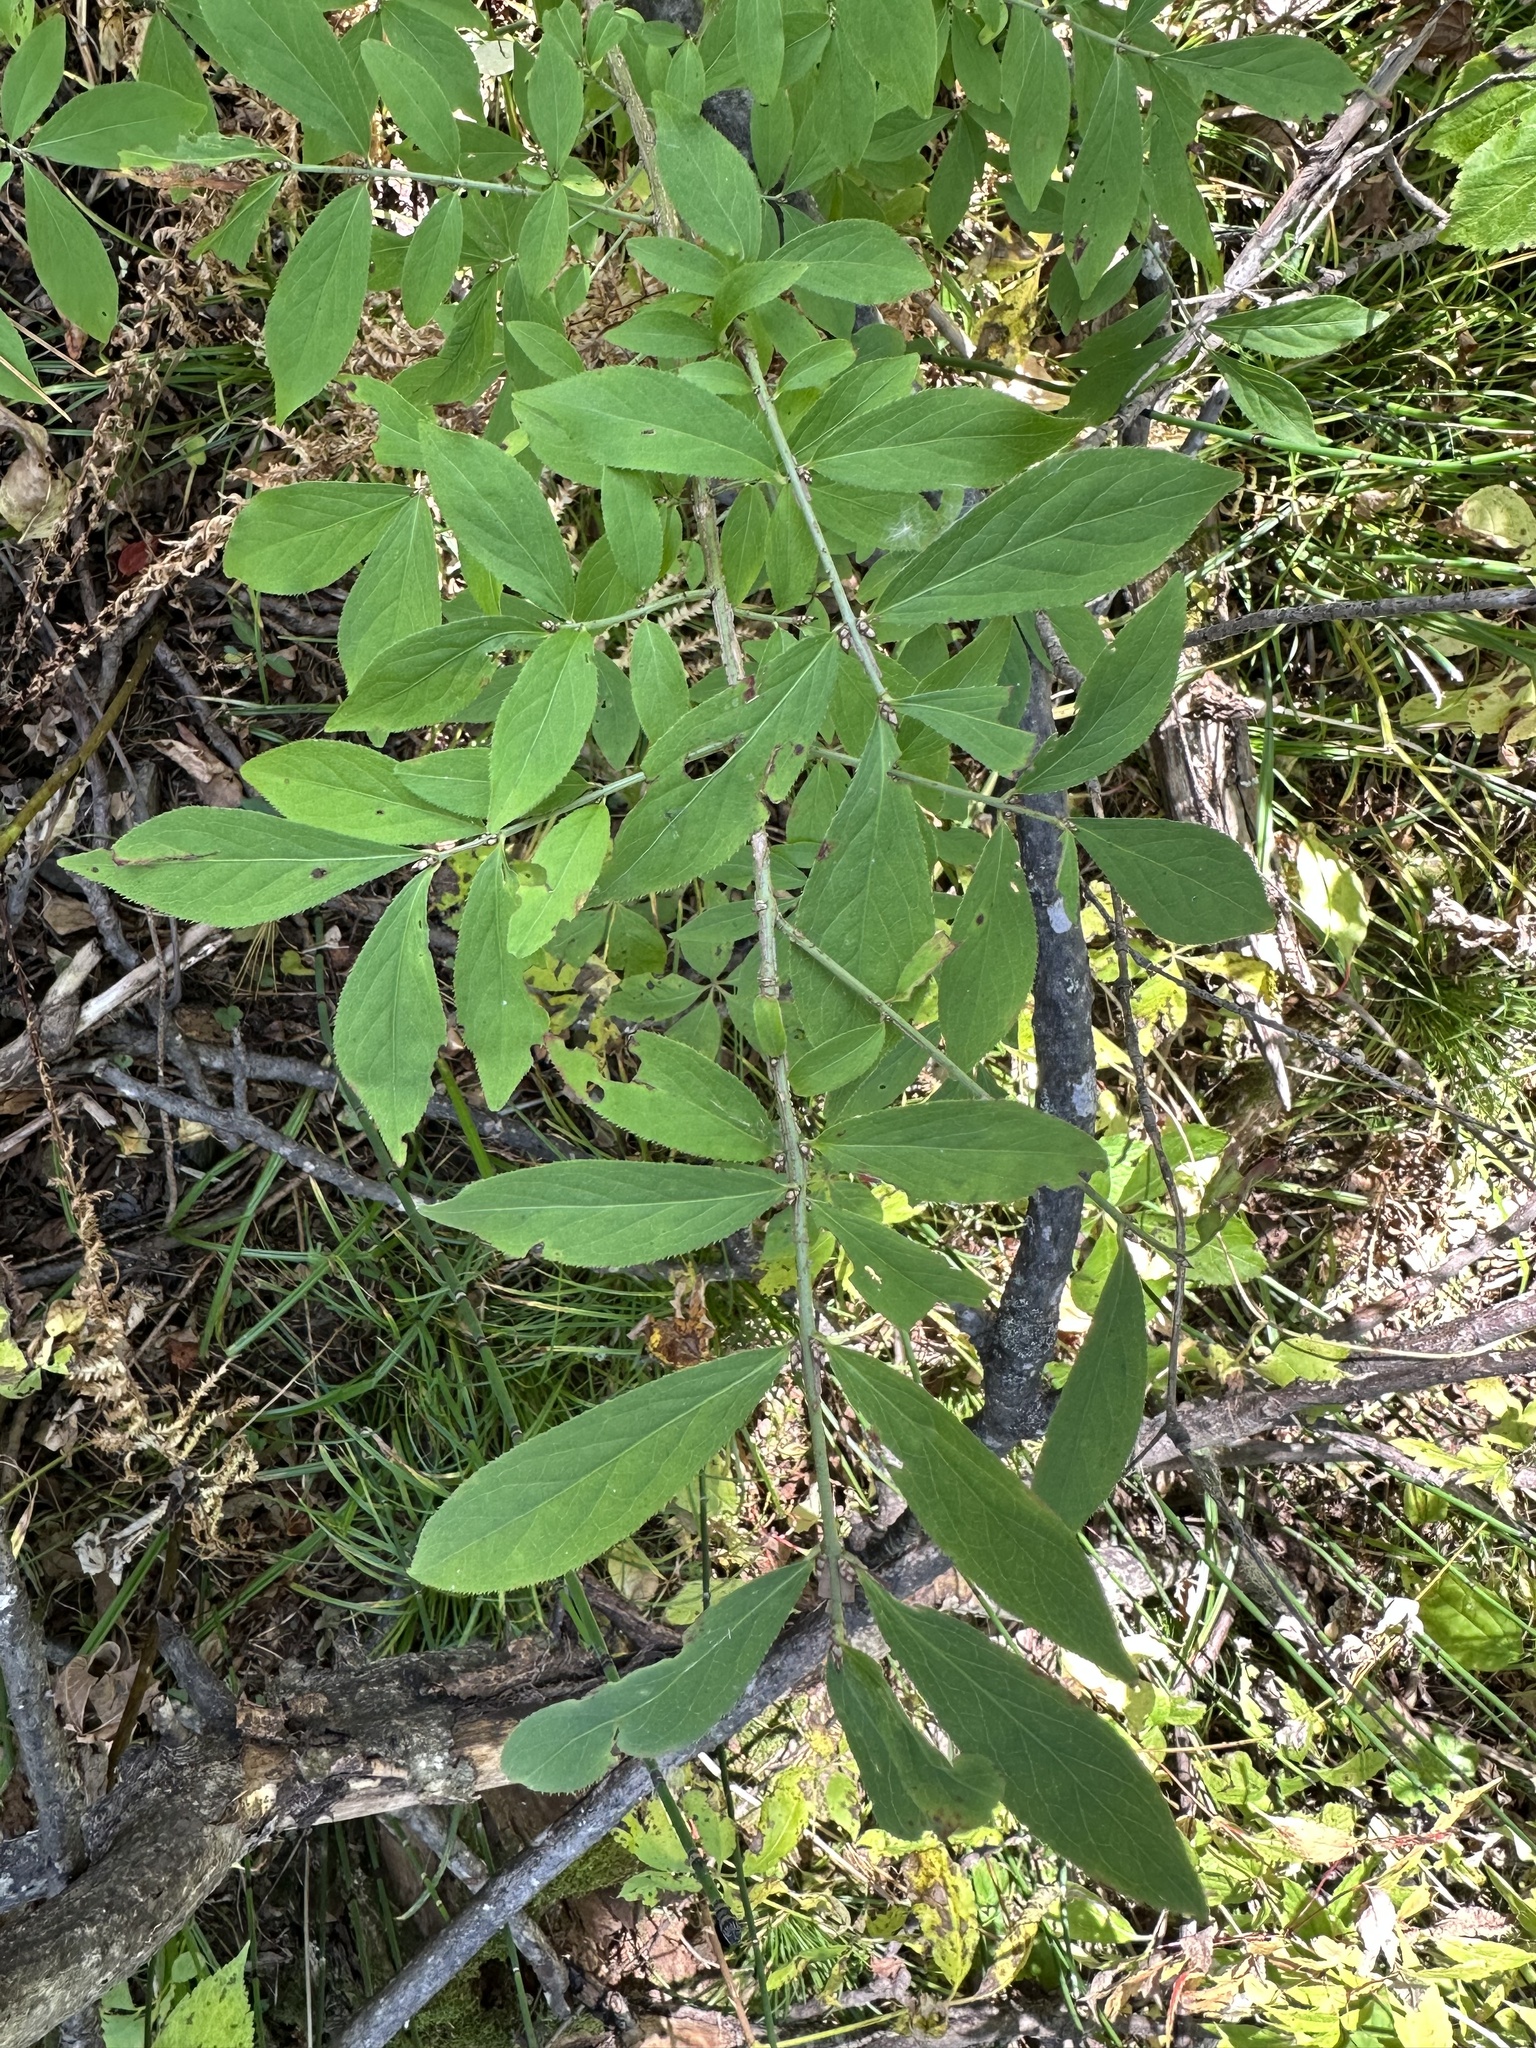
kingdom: Plantae
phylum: Tracheophyta
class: Magnoliopsida
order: Celastrales
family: Celastraceae
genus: Euonymus
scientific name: Euonymus alatus
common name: Winged euonymus
